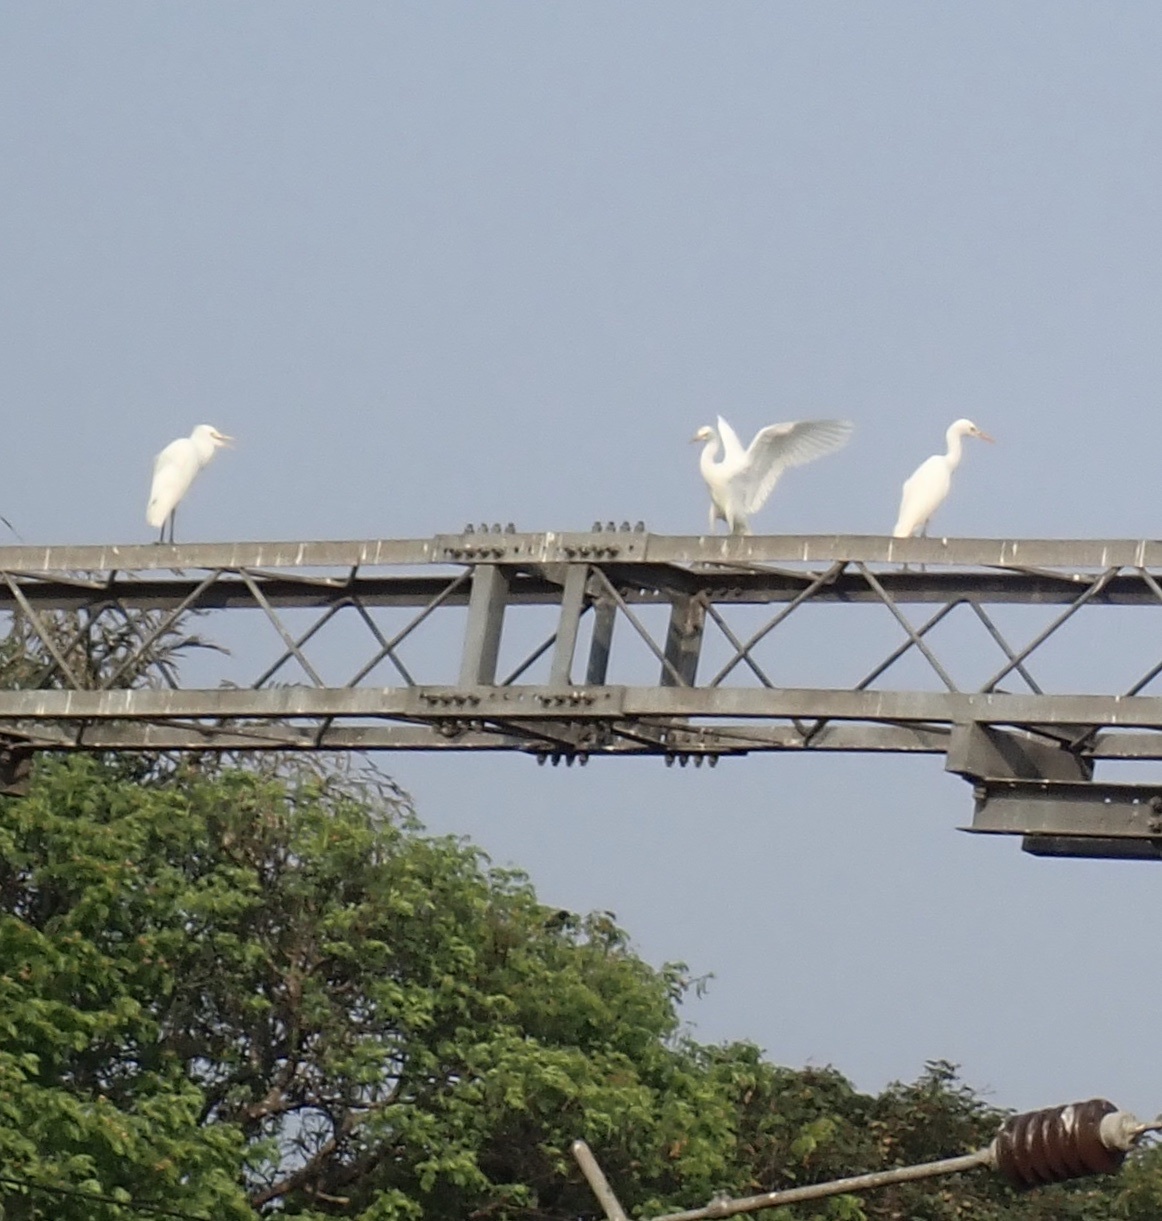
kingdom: Animalia
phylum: Chordata
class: Aves
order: Pelecaniformes
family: Ardeidae
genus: Bubulcus
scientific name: Bubulcus coromandus
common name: Eastern cattle egret
